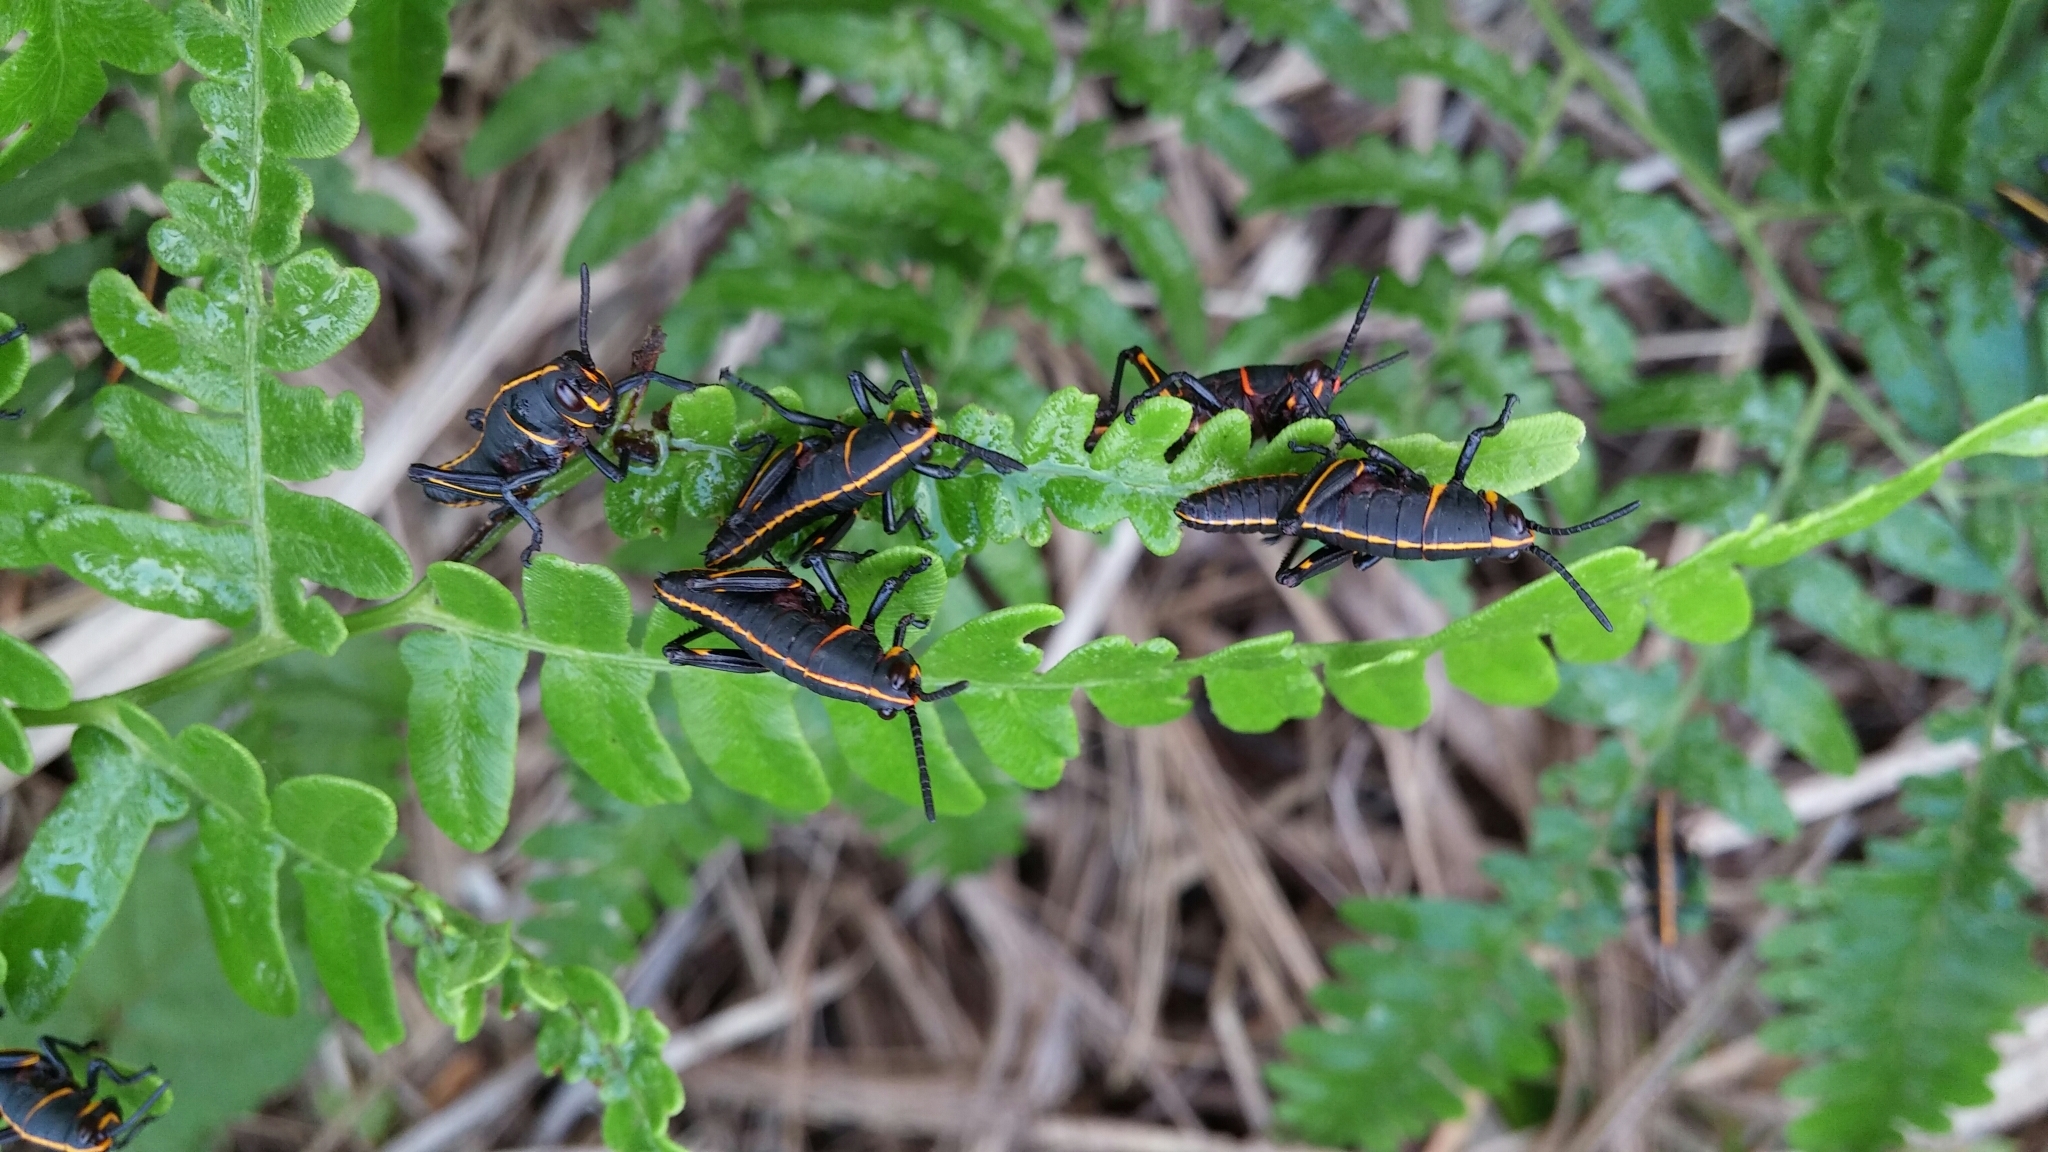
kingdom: Animalia
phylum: Arthropoda
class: Insecta
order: Orthoptera
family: Romaleidae
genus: Romalea
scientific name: Romalea microptera
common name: Eastern lubber grasshopper
